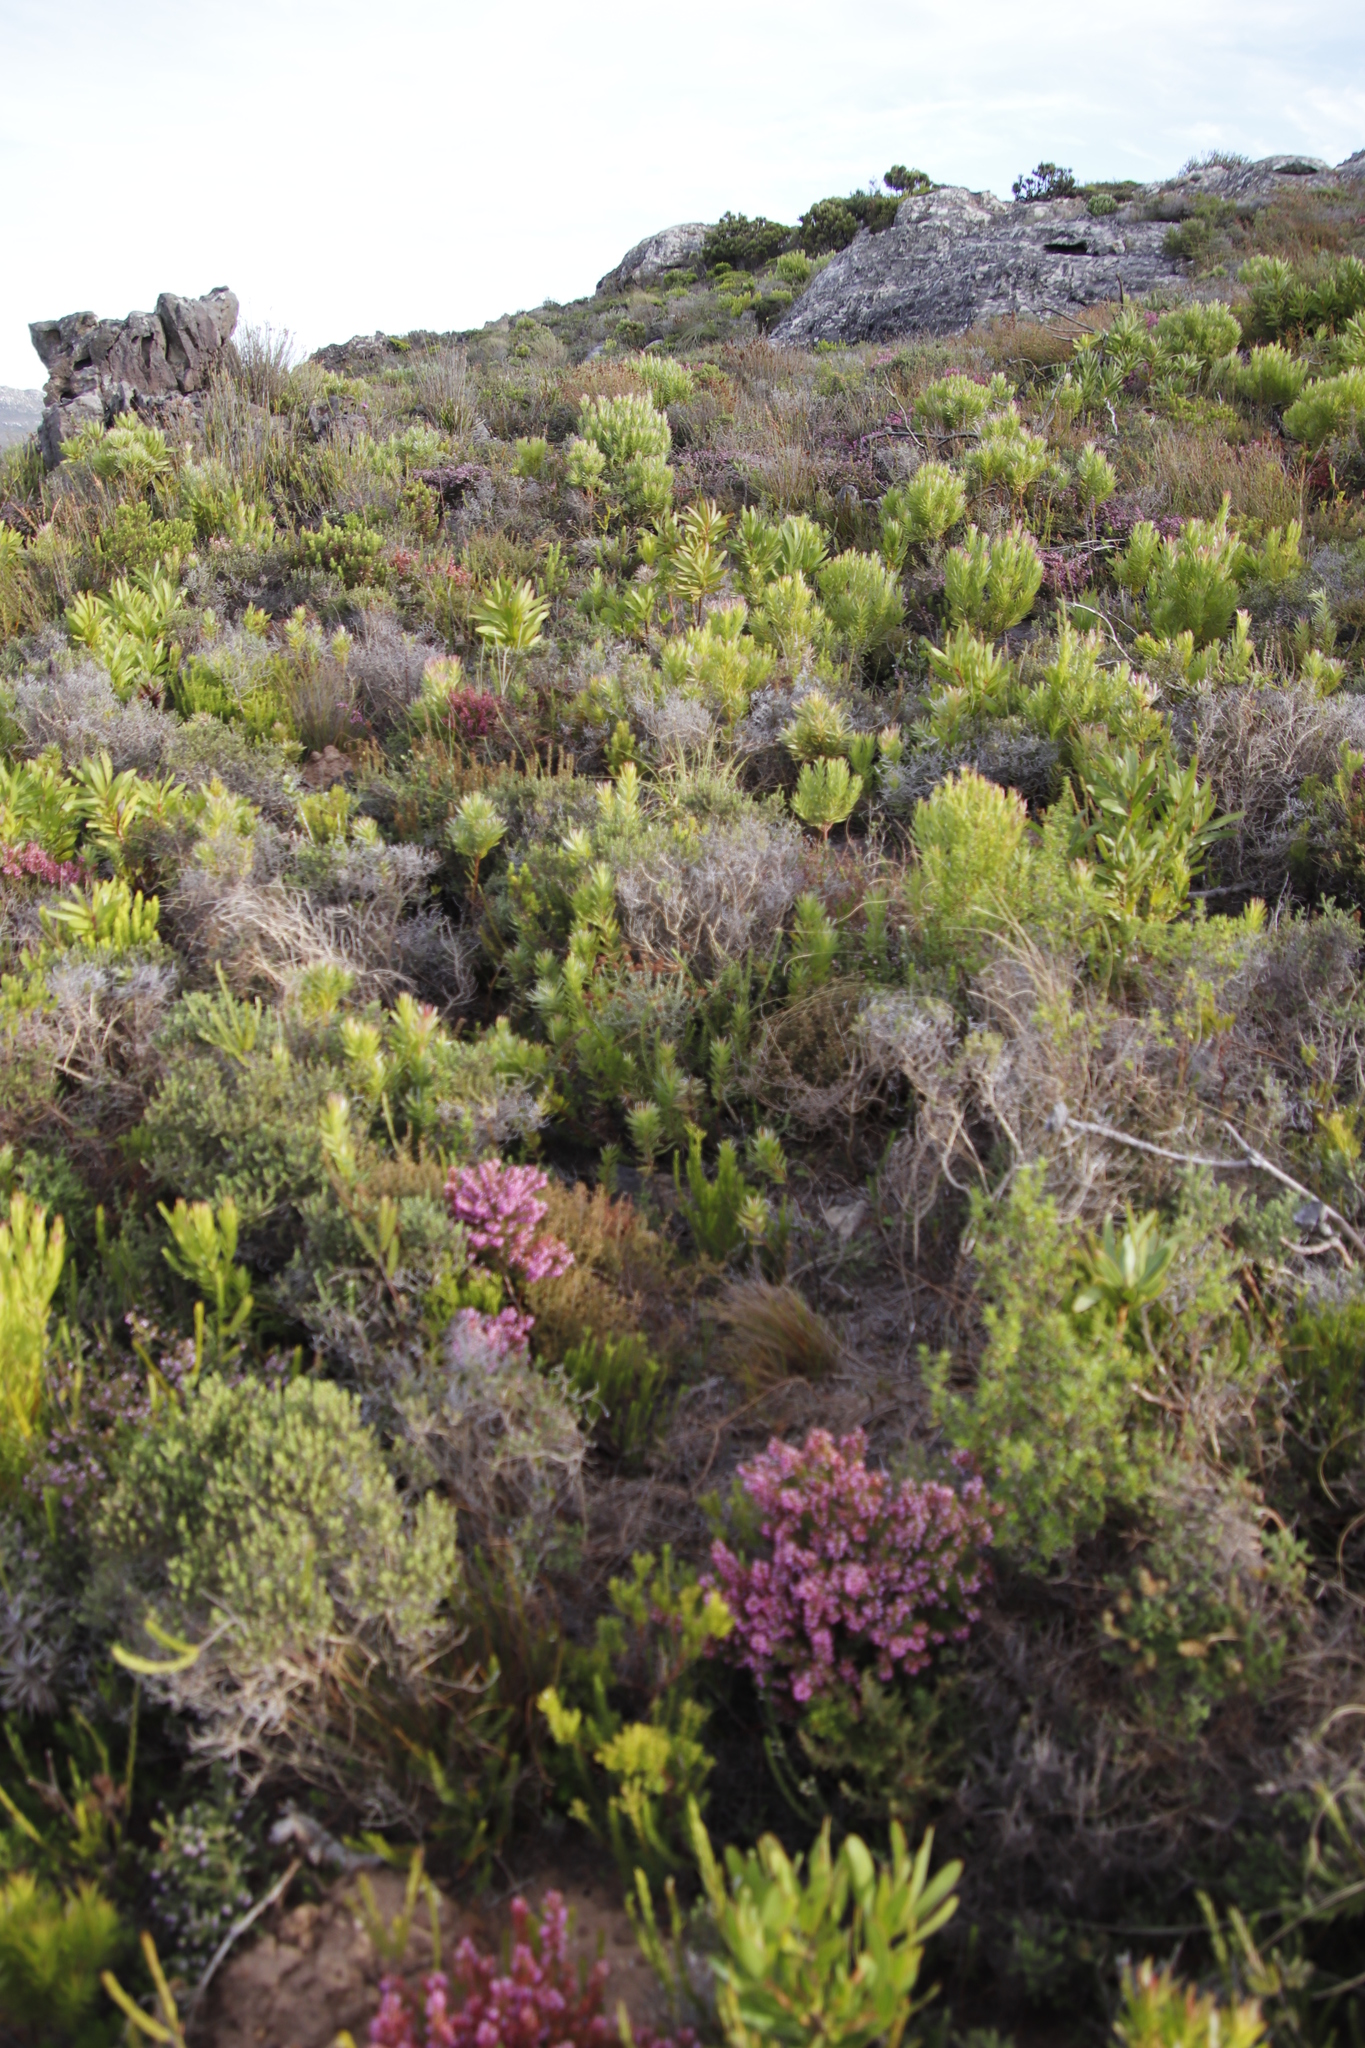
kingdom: Plantae
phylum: Tracheophyta
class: Magnoliopsida
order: Ericales
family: Ericaceae
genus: Erica
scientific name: Erica nudiflora
